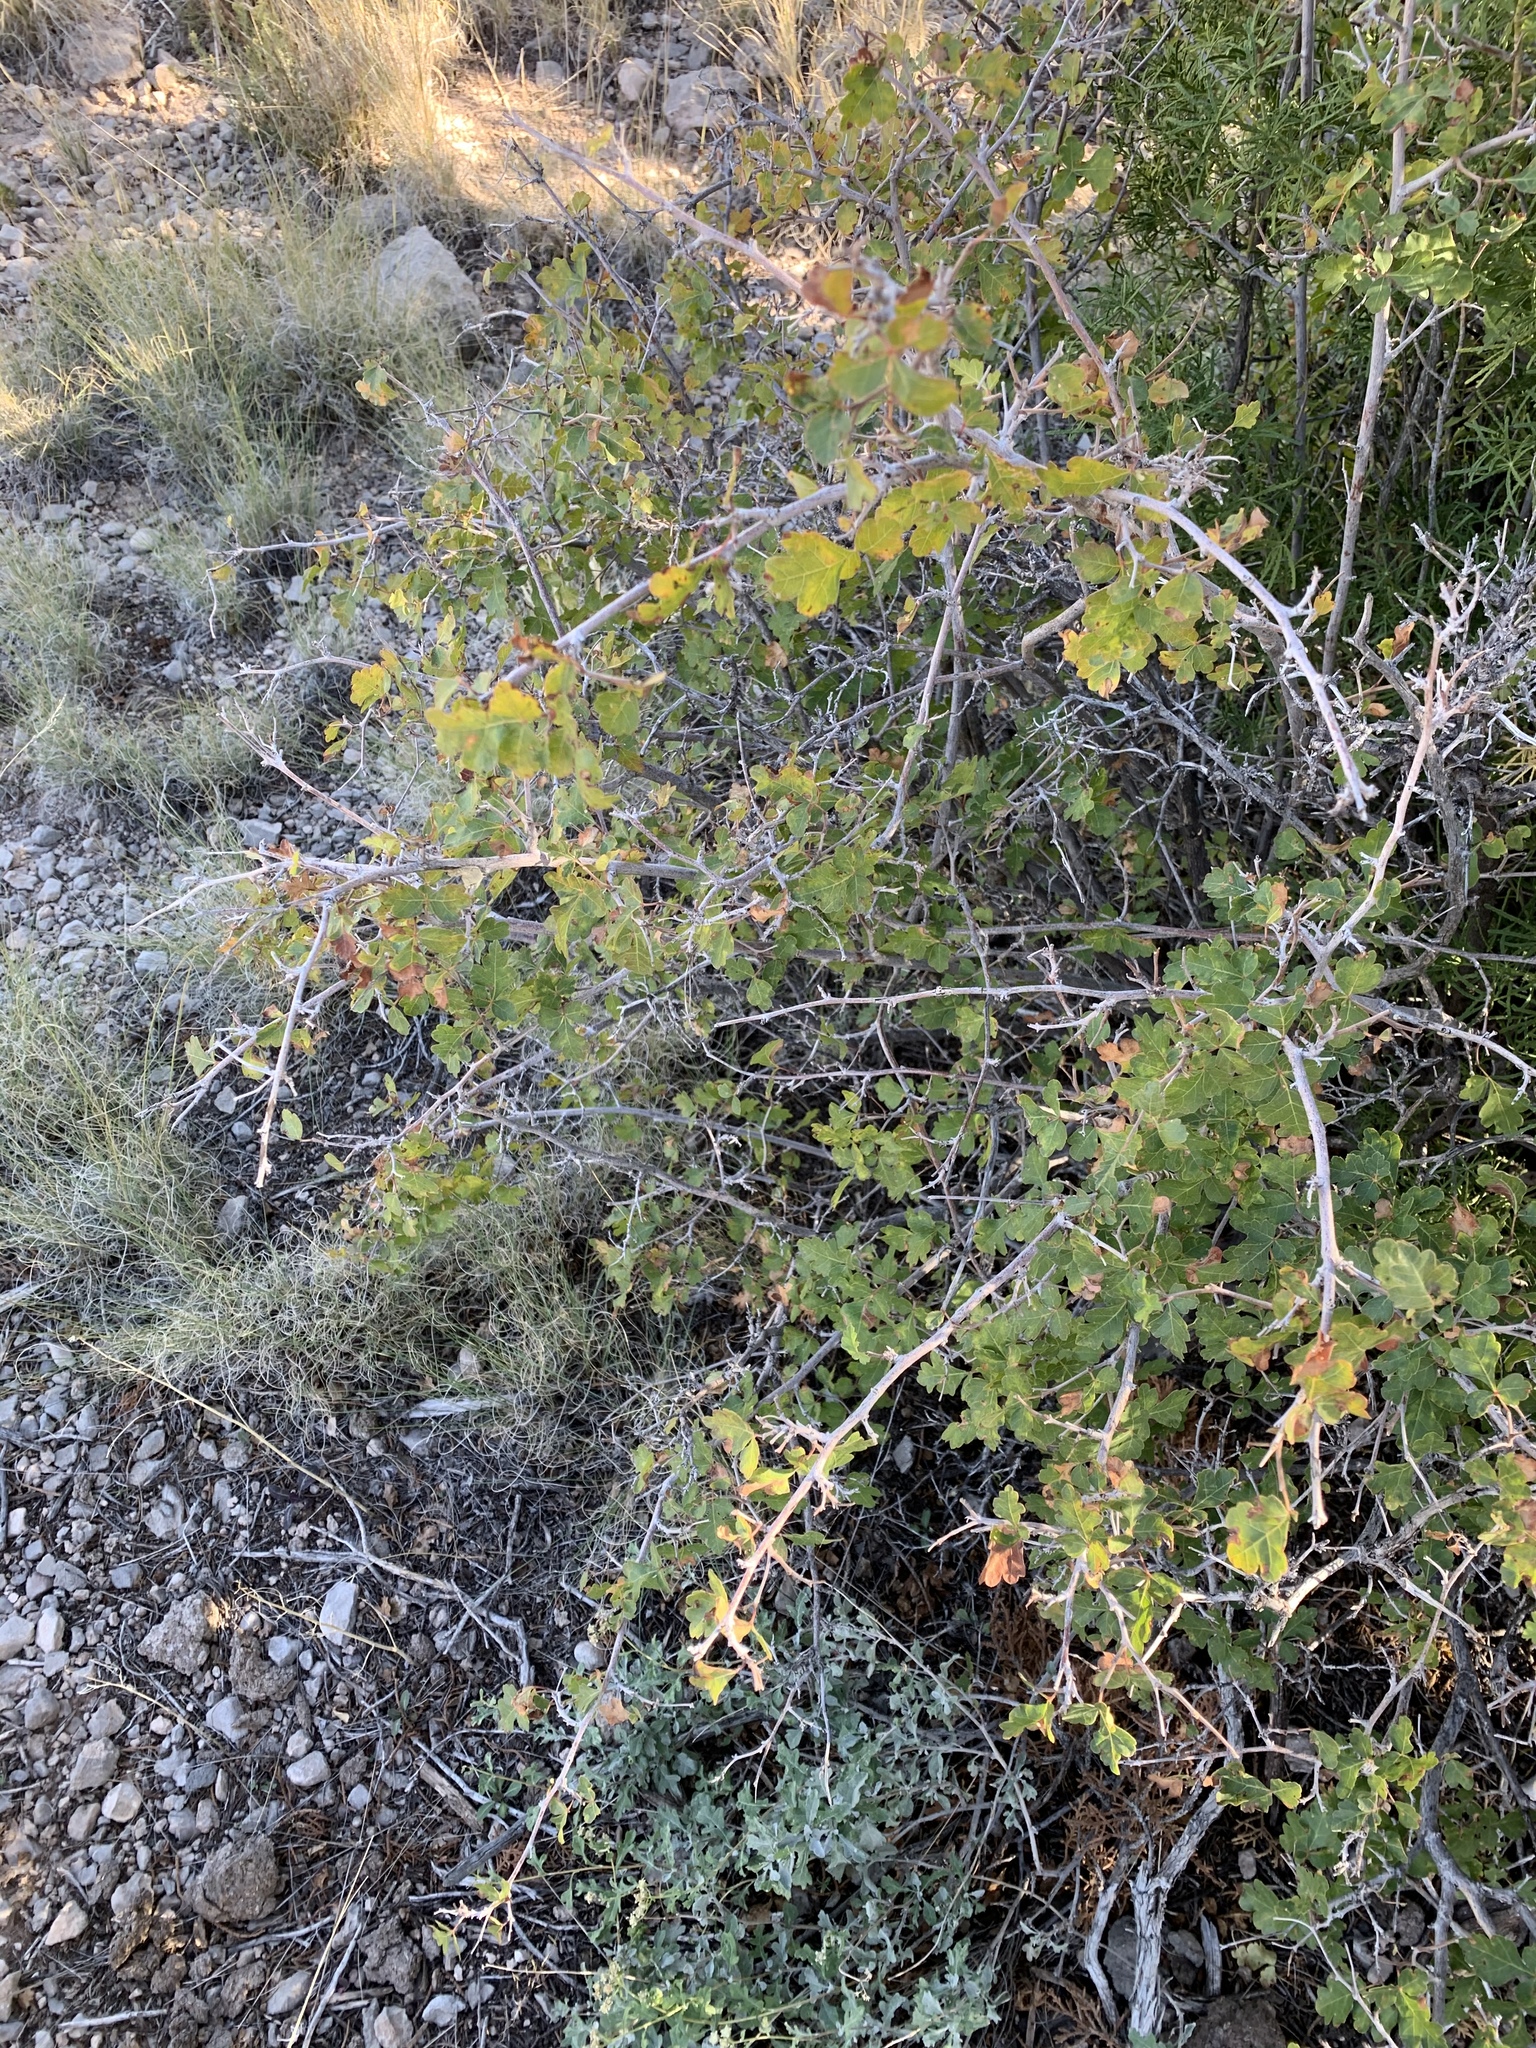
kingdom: Plantae
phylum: Tracheophyta
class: Magnoliopsida
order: Sapindales
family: Anacardiaceae
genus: Rhus
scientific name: Rhus aromatica
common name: Aromatic sumac
